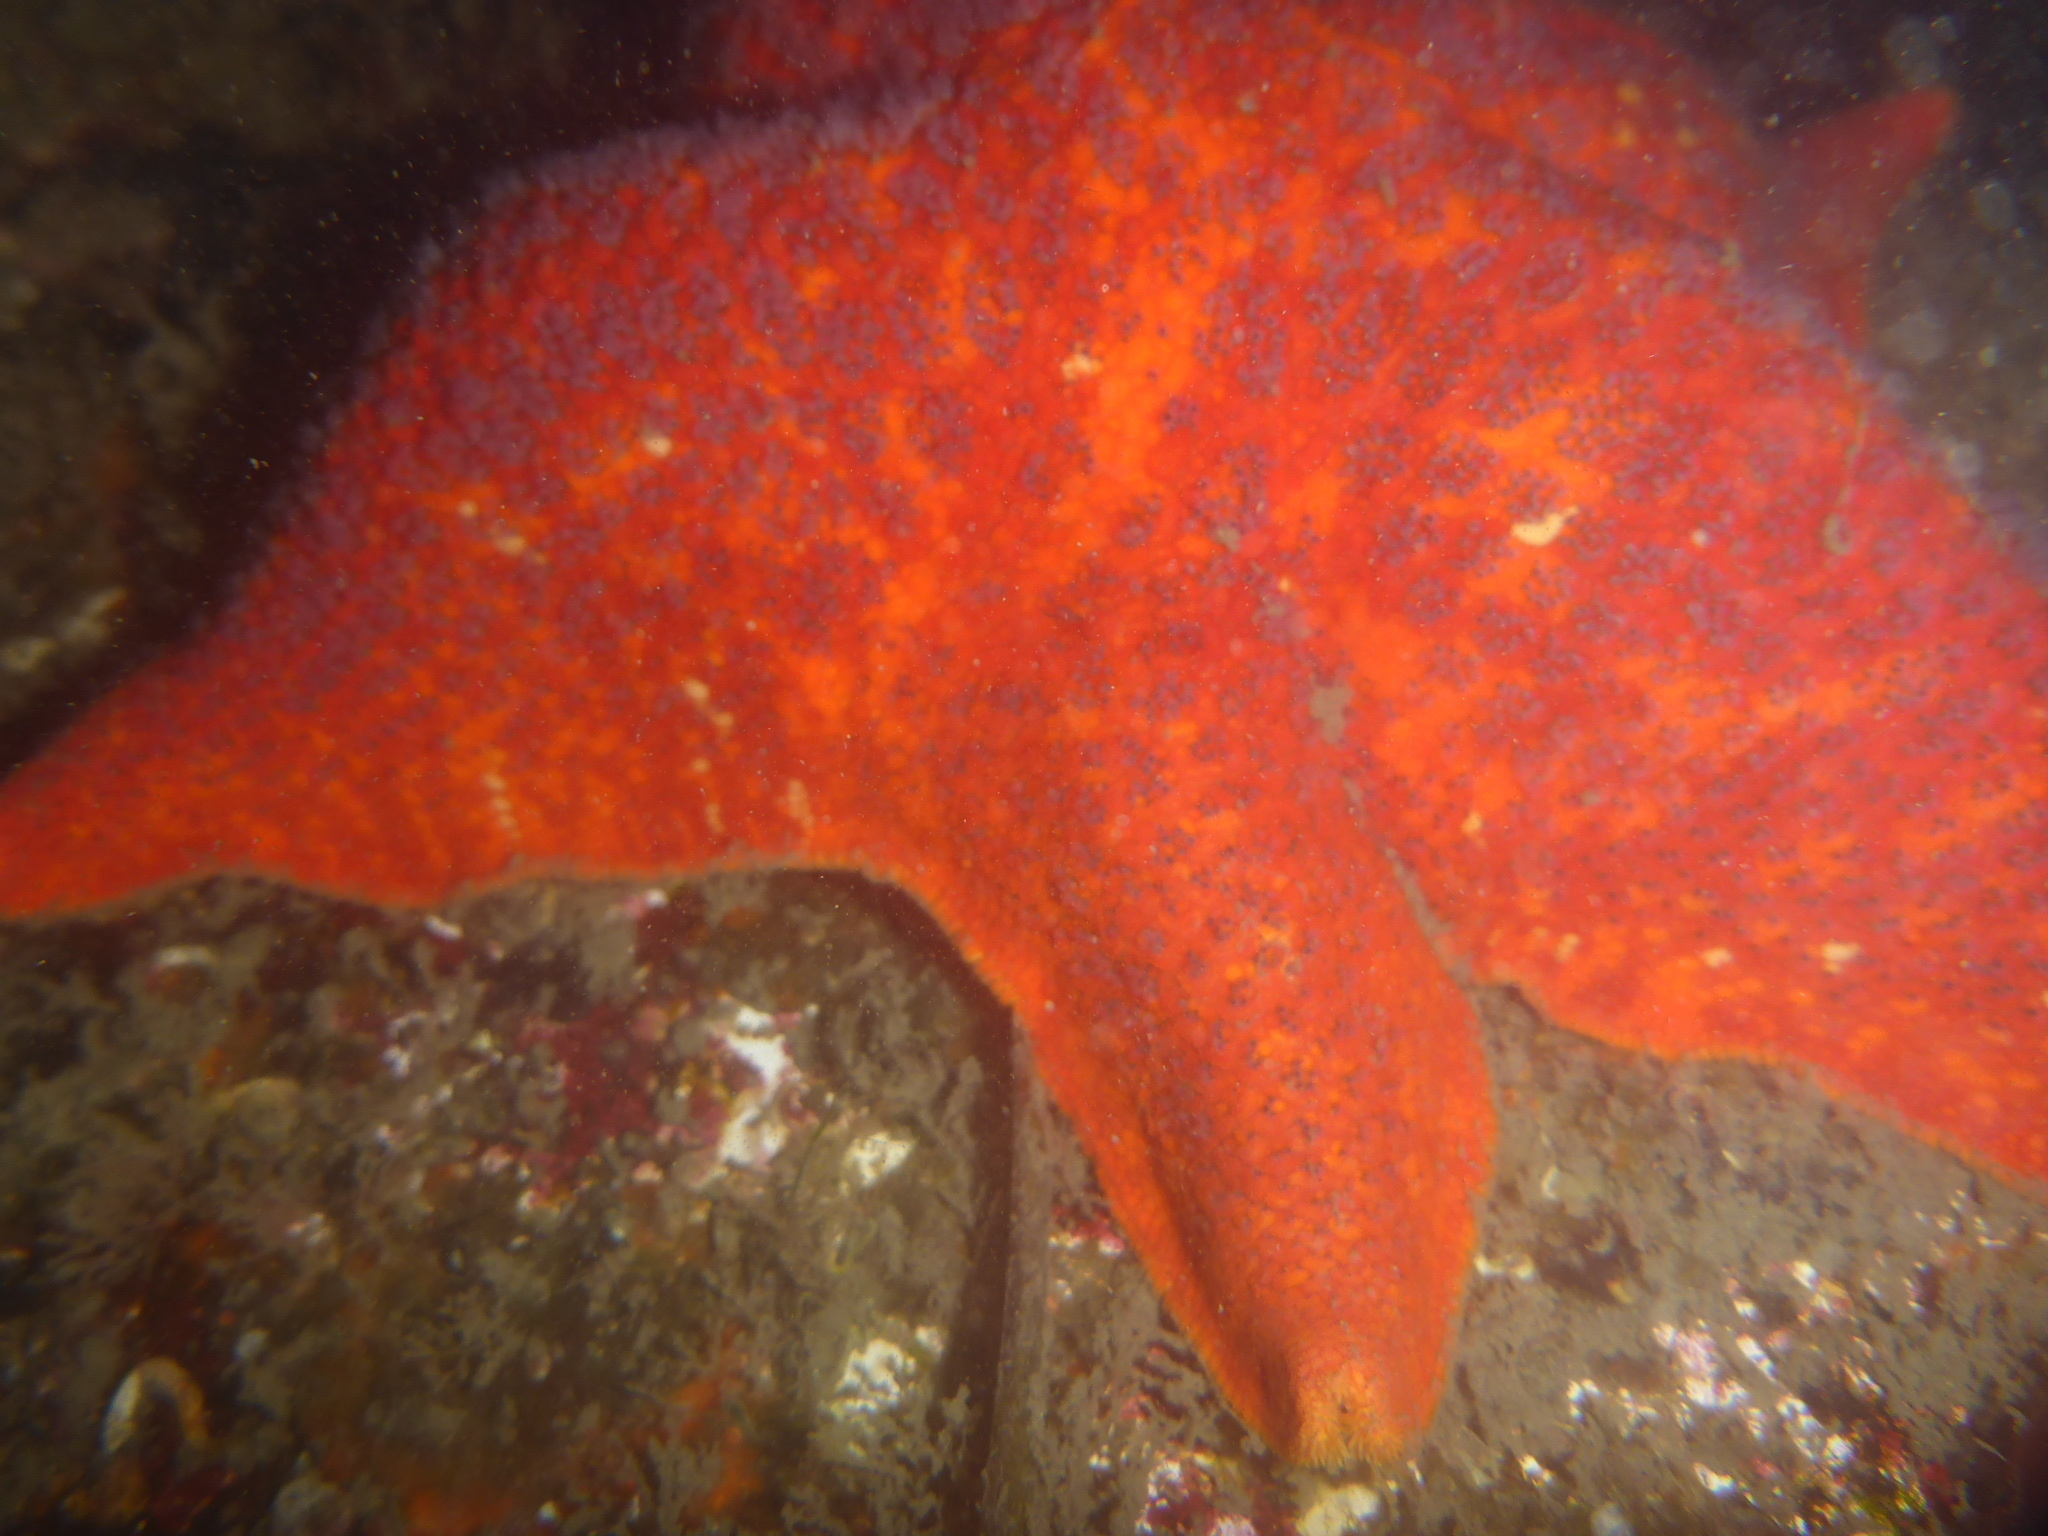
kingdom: Animalia
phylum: Echinodermata
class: Asteroidea
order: Valvatida
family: Asterinidae
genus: Patiria
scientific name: Patiria miniata
